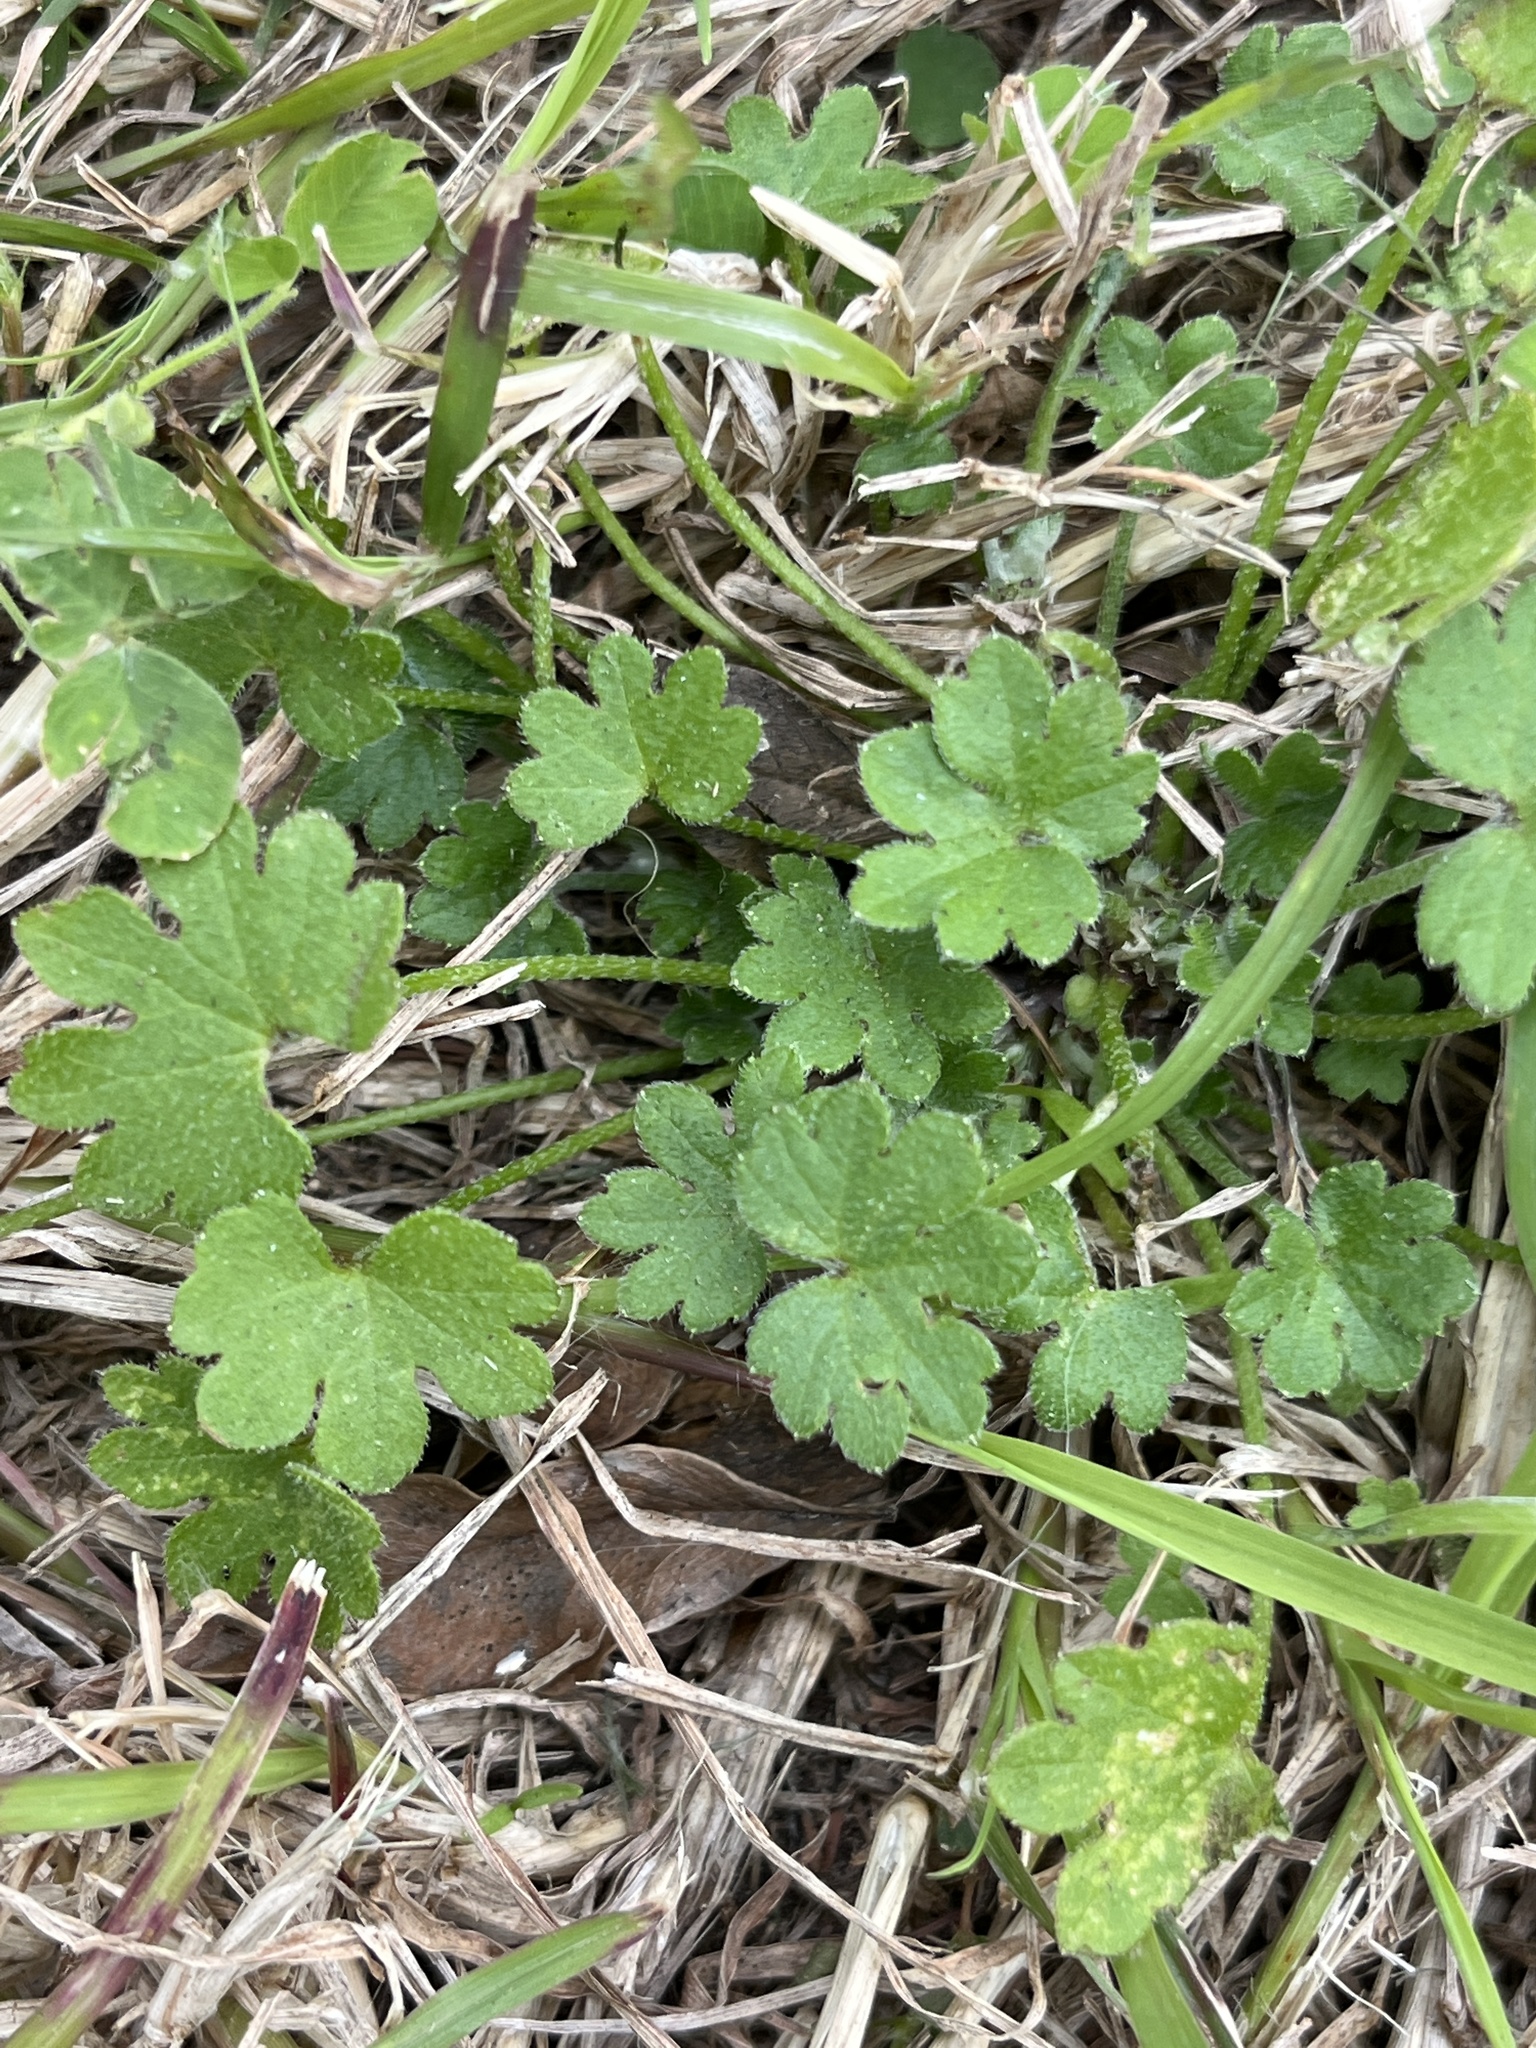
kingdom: Plantae
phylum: Tracheophyta
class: Magnoliopsida
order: Apiales
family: Apiaceae
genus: Bowlesia
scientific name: Bowlesia incana
